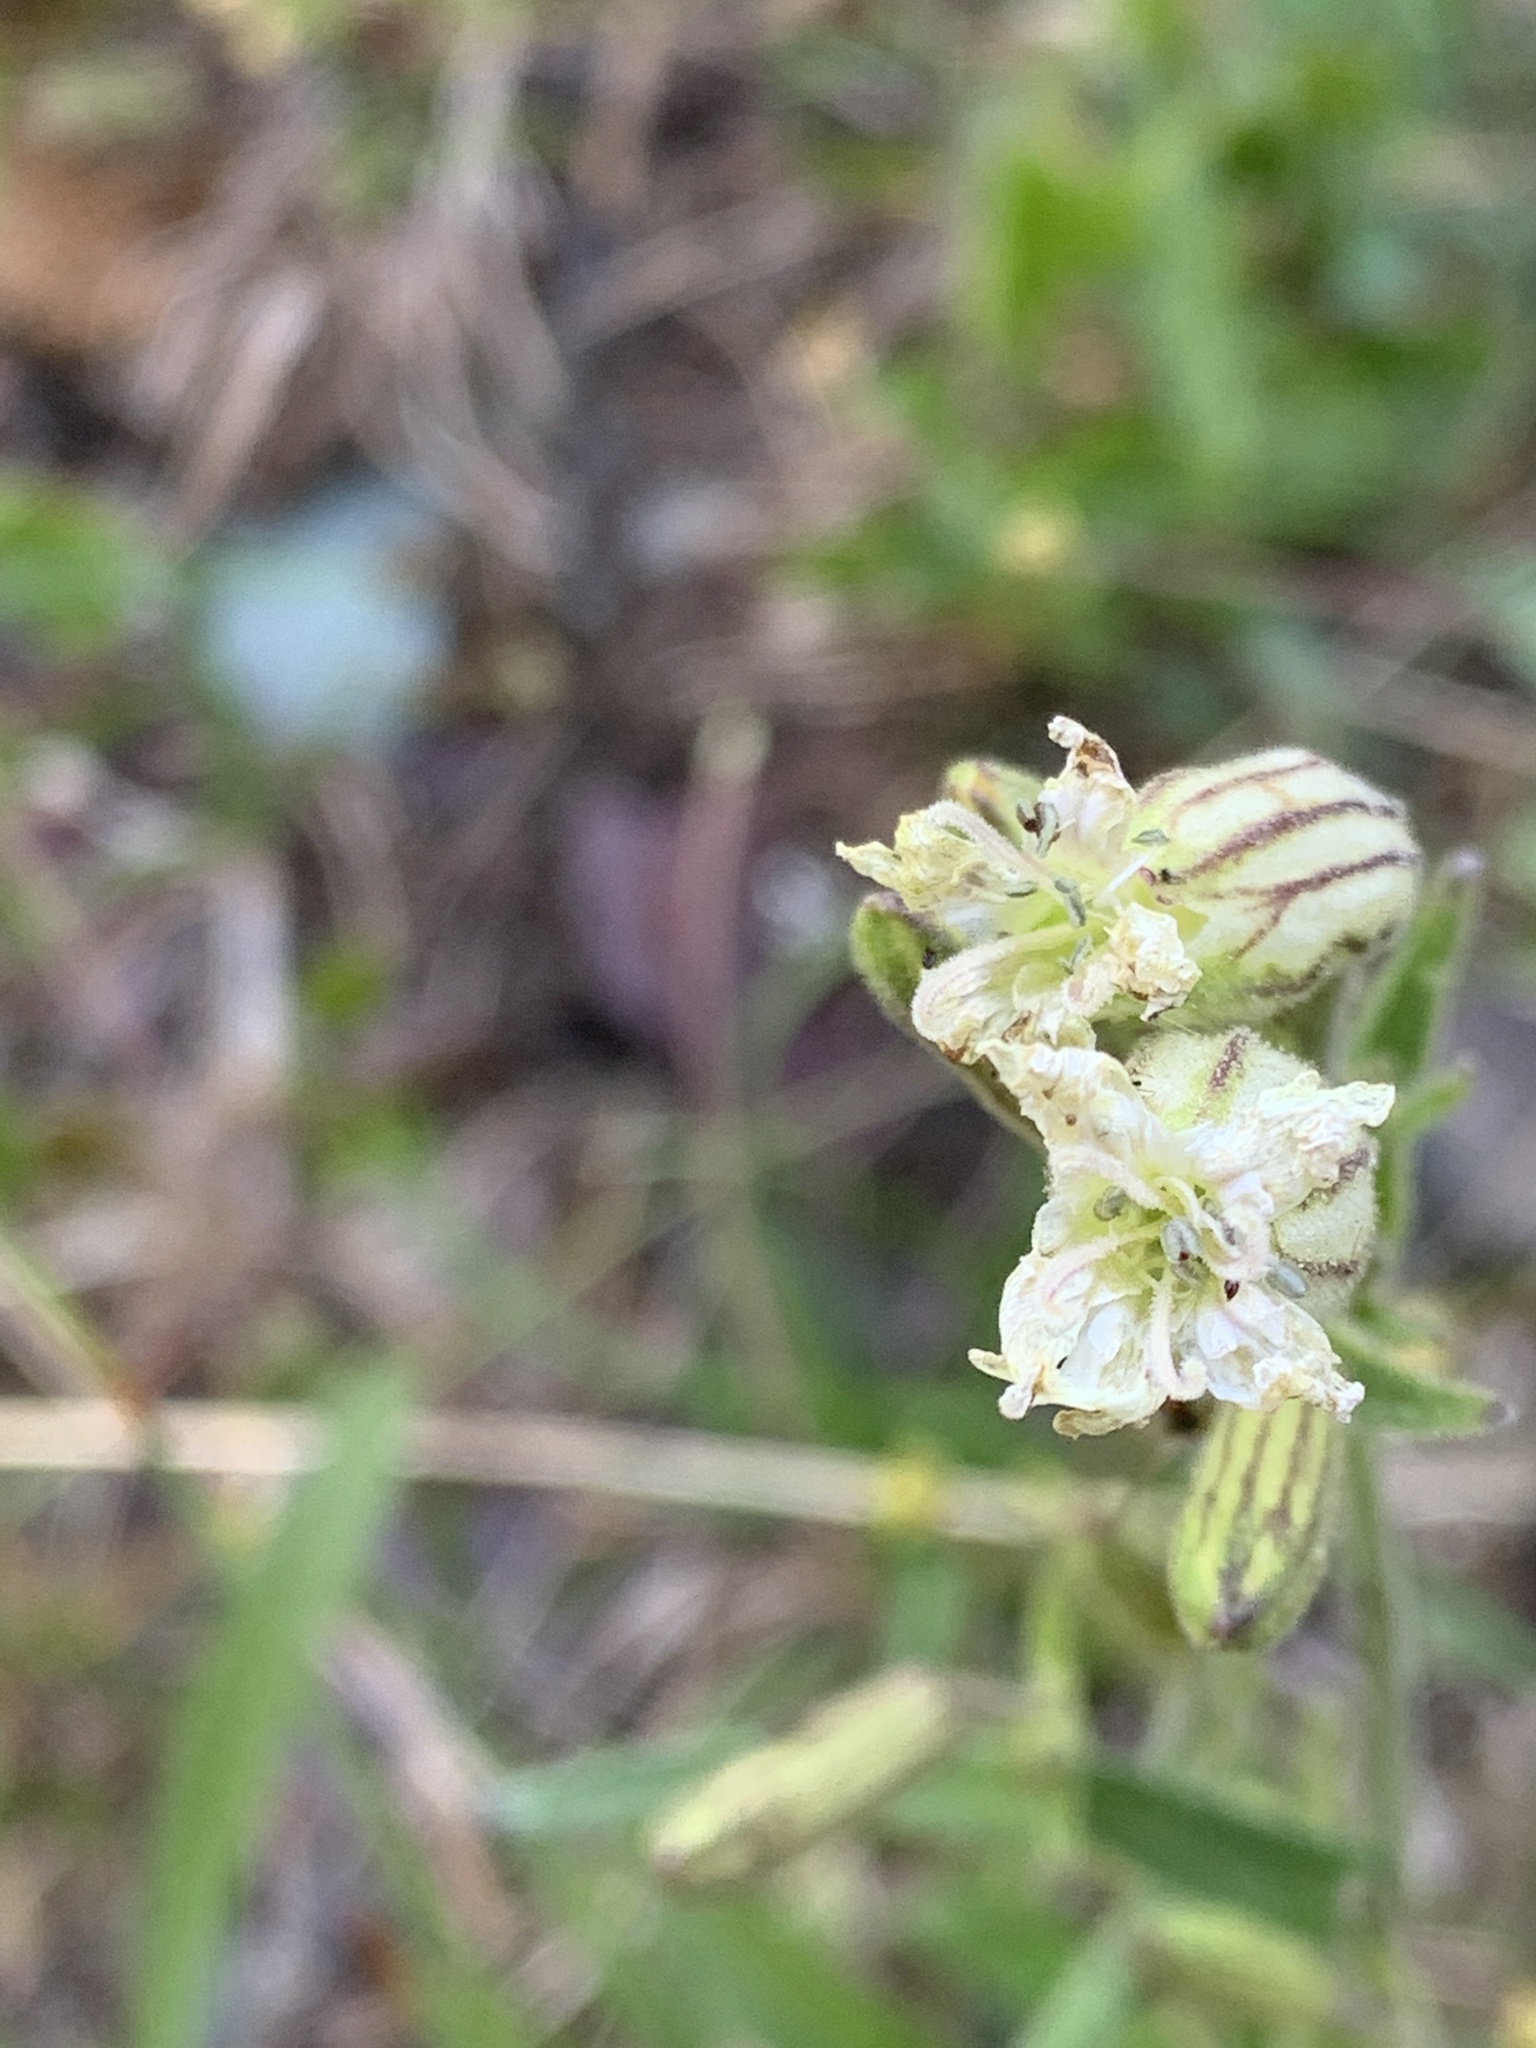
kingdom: Plantae
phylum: Tracheophyta
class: Magnoliopsida
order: Caryophyllales
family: Caryophyllaceae
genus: Silene
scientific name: Silene parryi
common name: Parry's campion
